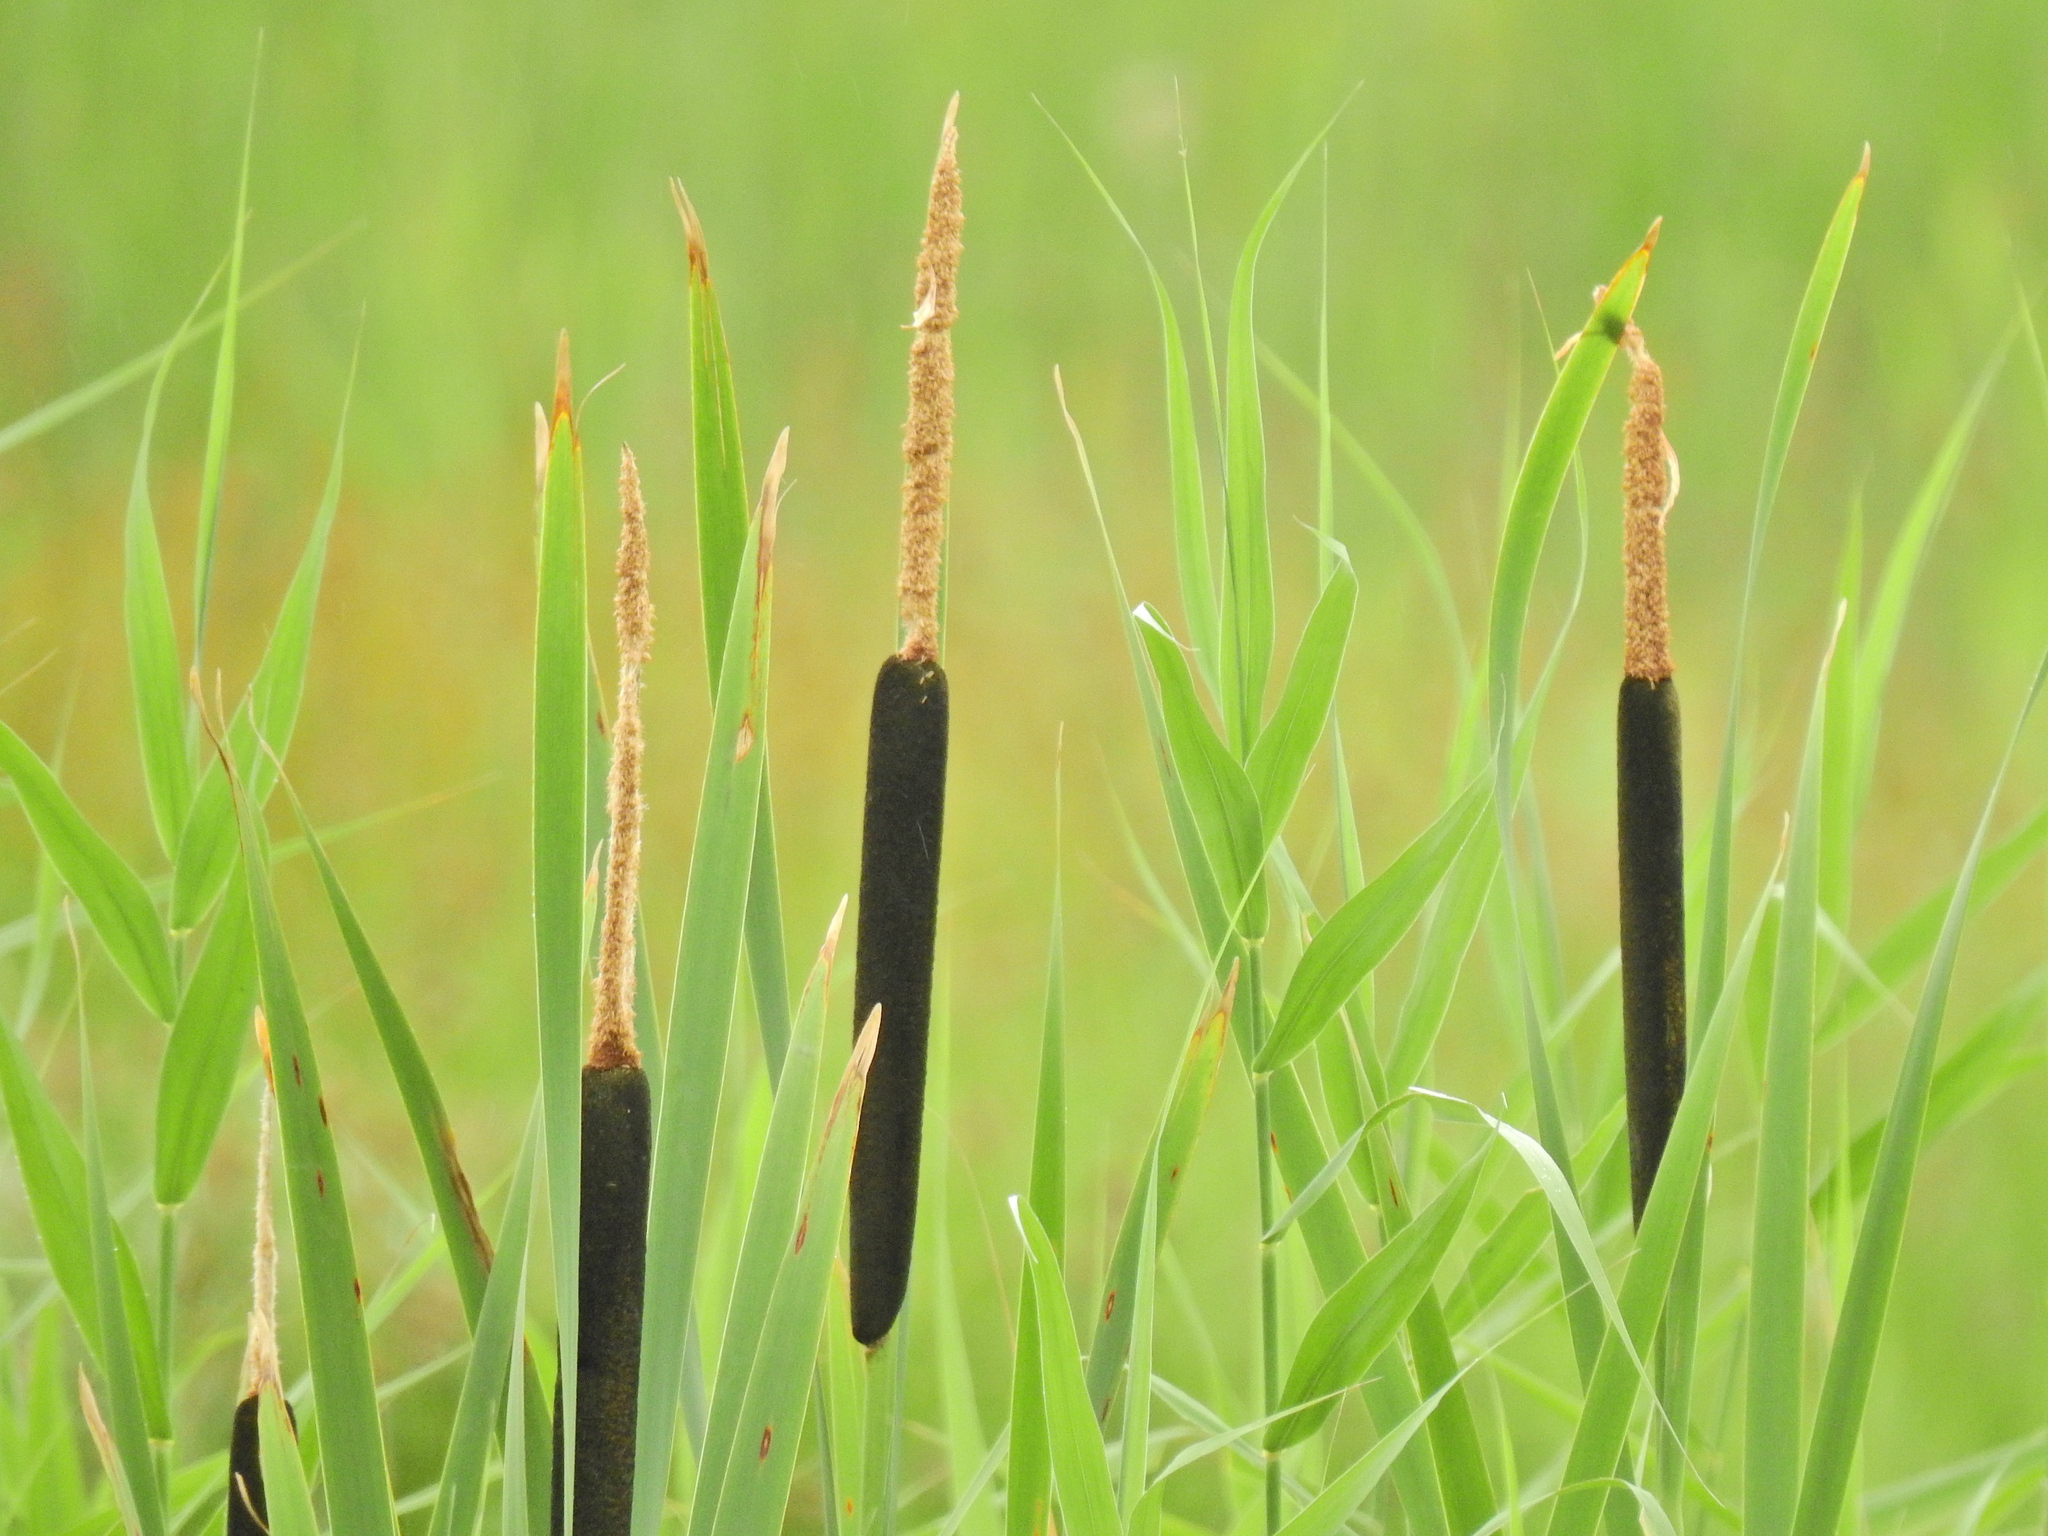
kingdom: Plantae
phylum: Tracheophyta
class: Liliopsida
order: Poales
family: Typhaceae
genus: Typha
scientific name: Typha latifolia
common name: Broadleaf cattail
